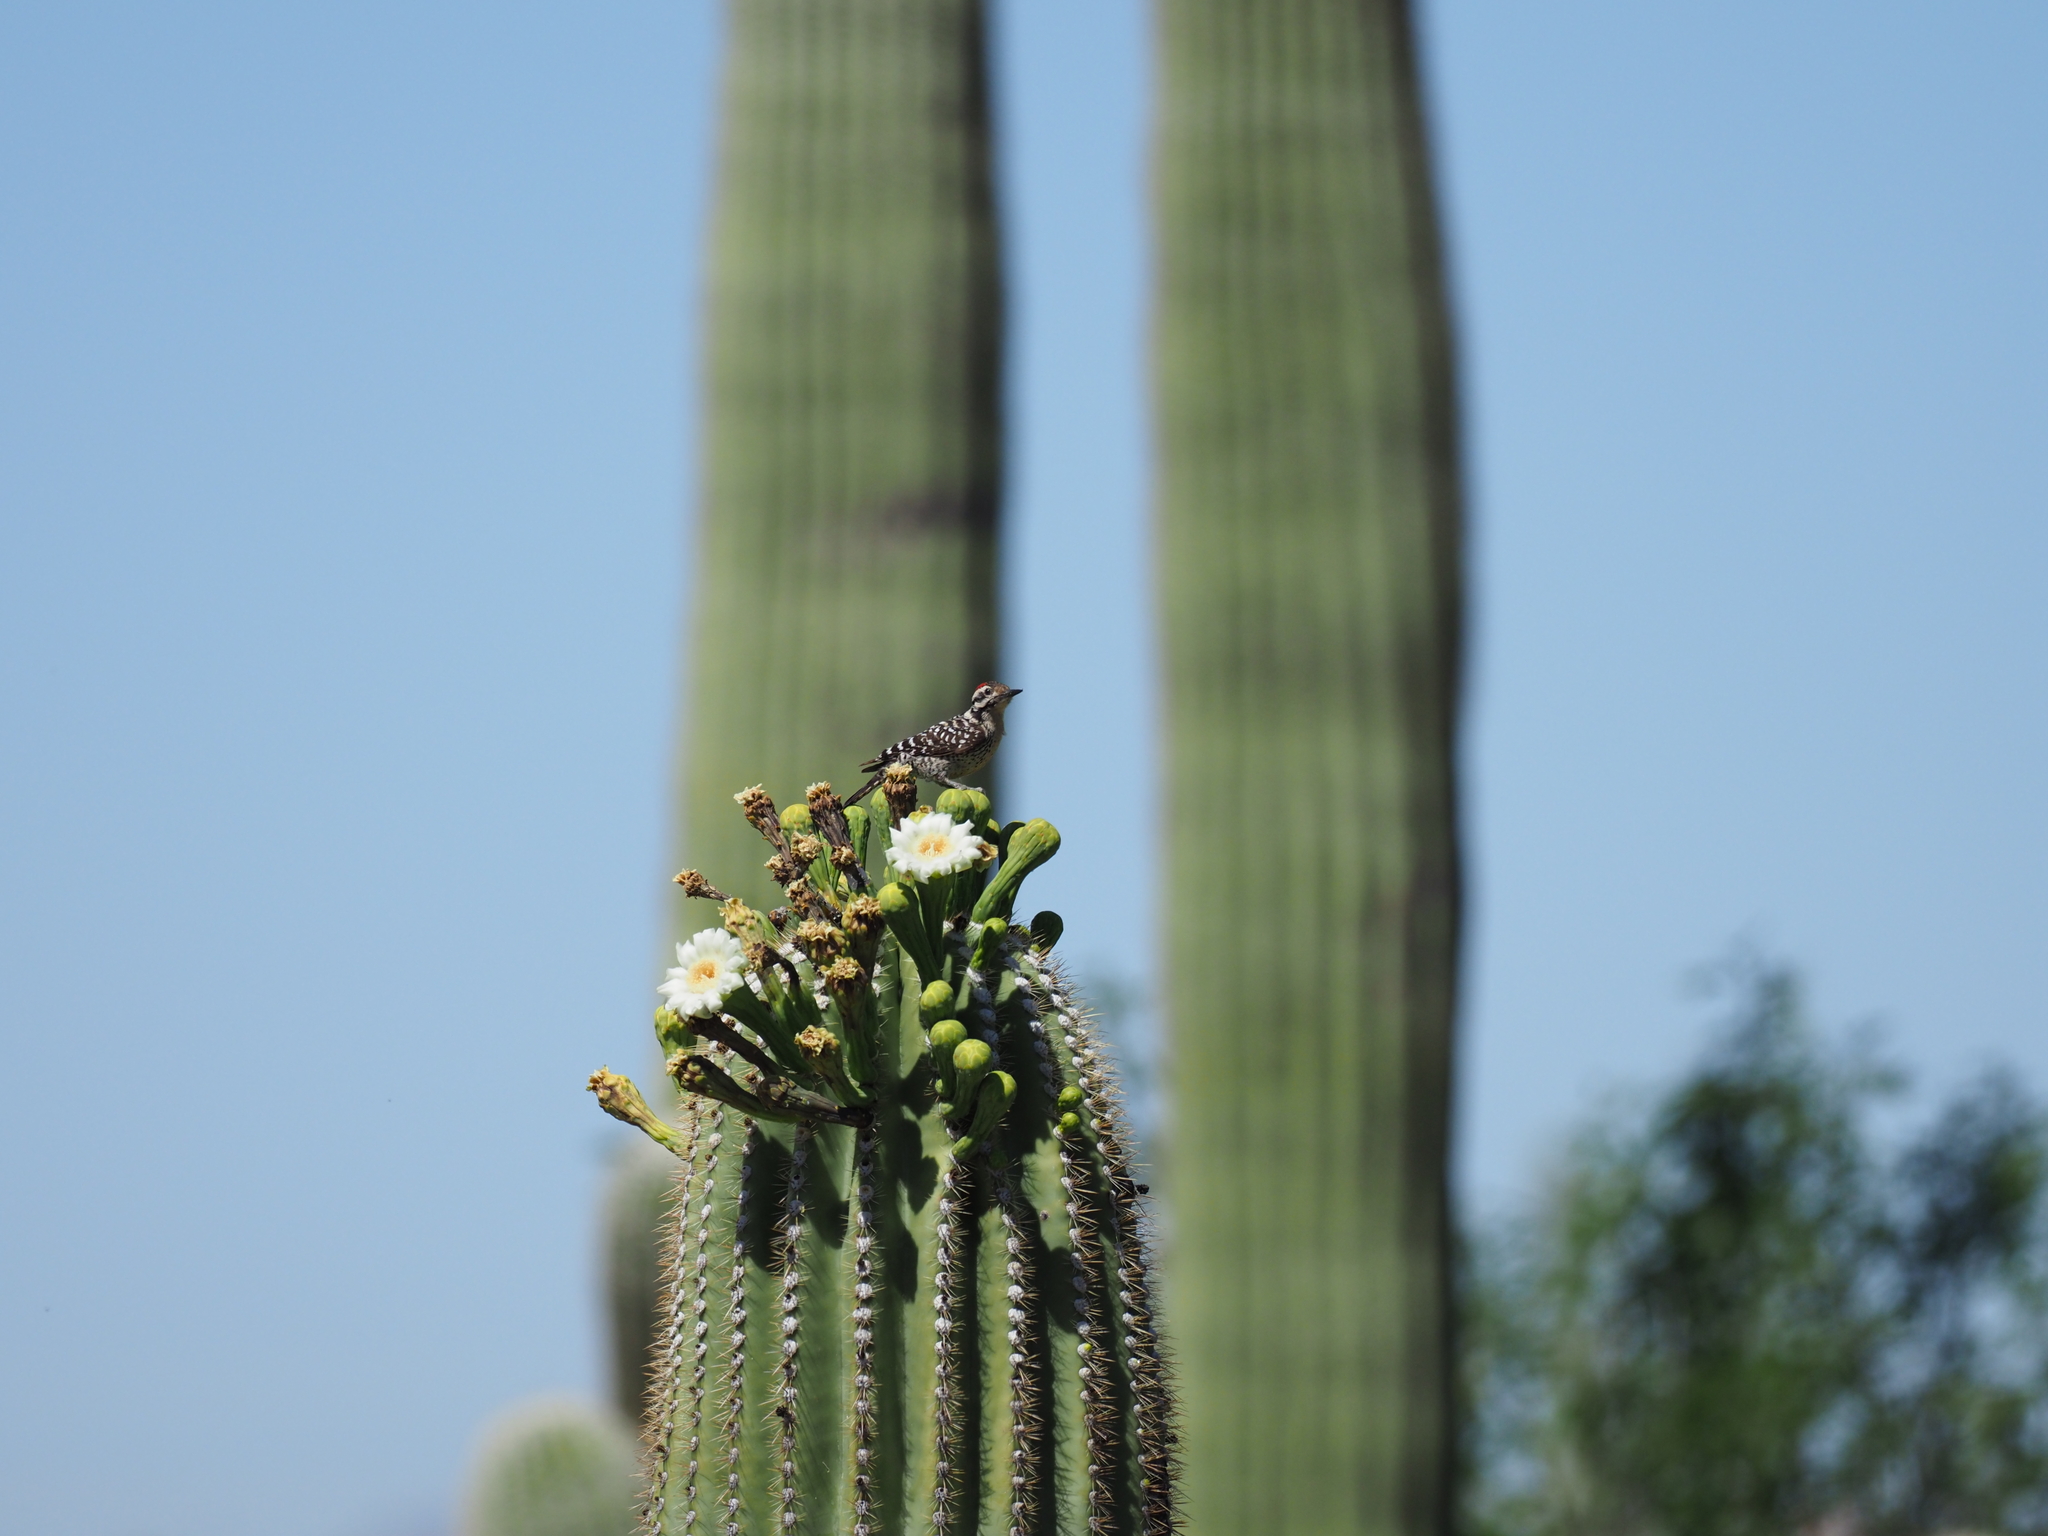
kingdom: Animalia
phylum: Chordata
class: Aves
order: Piciformes
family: Picidae
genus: Dryobates
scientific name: Dryobates scalaris
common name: Ladder-backed woodpecker
